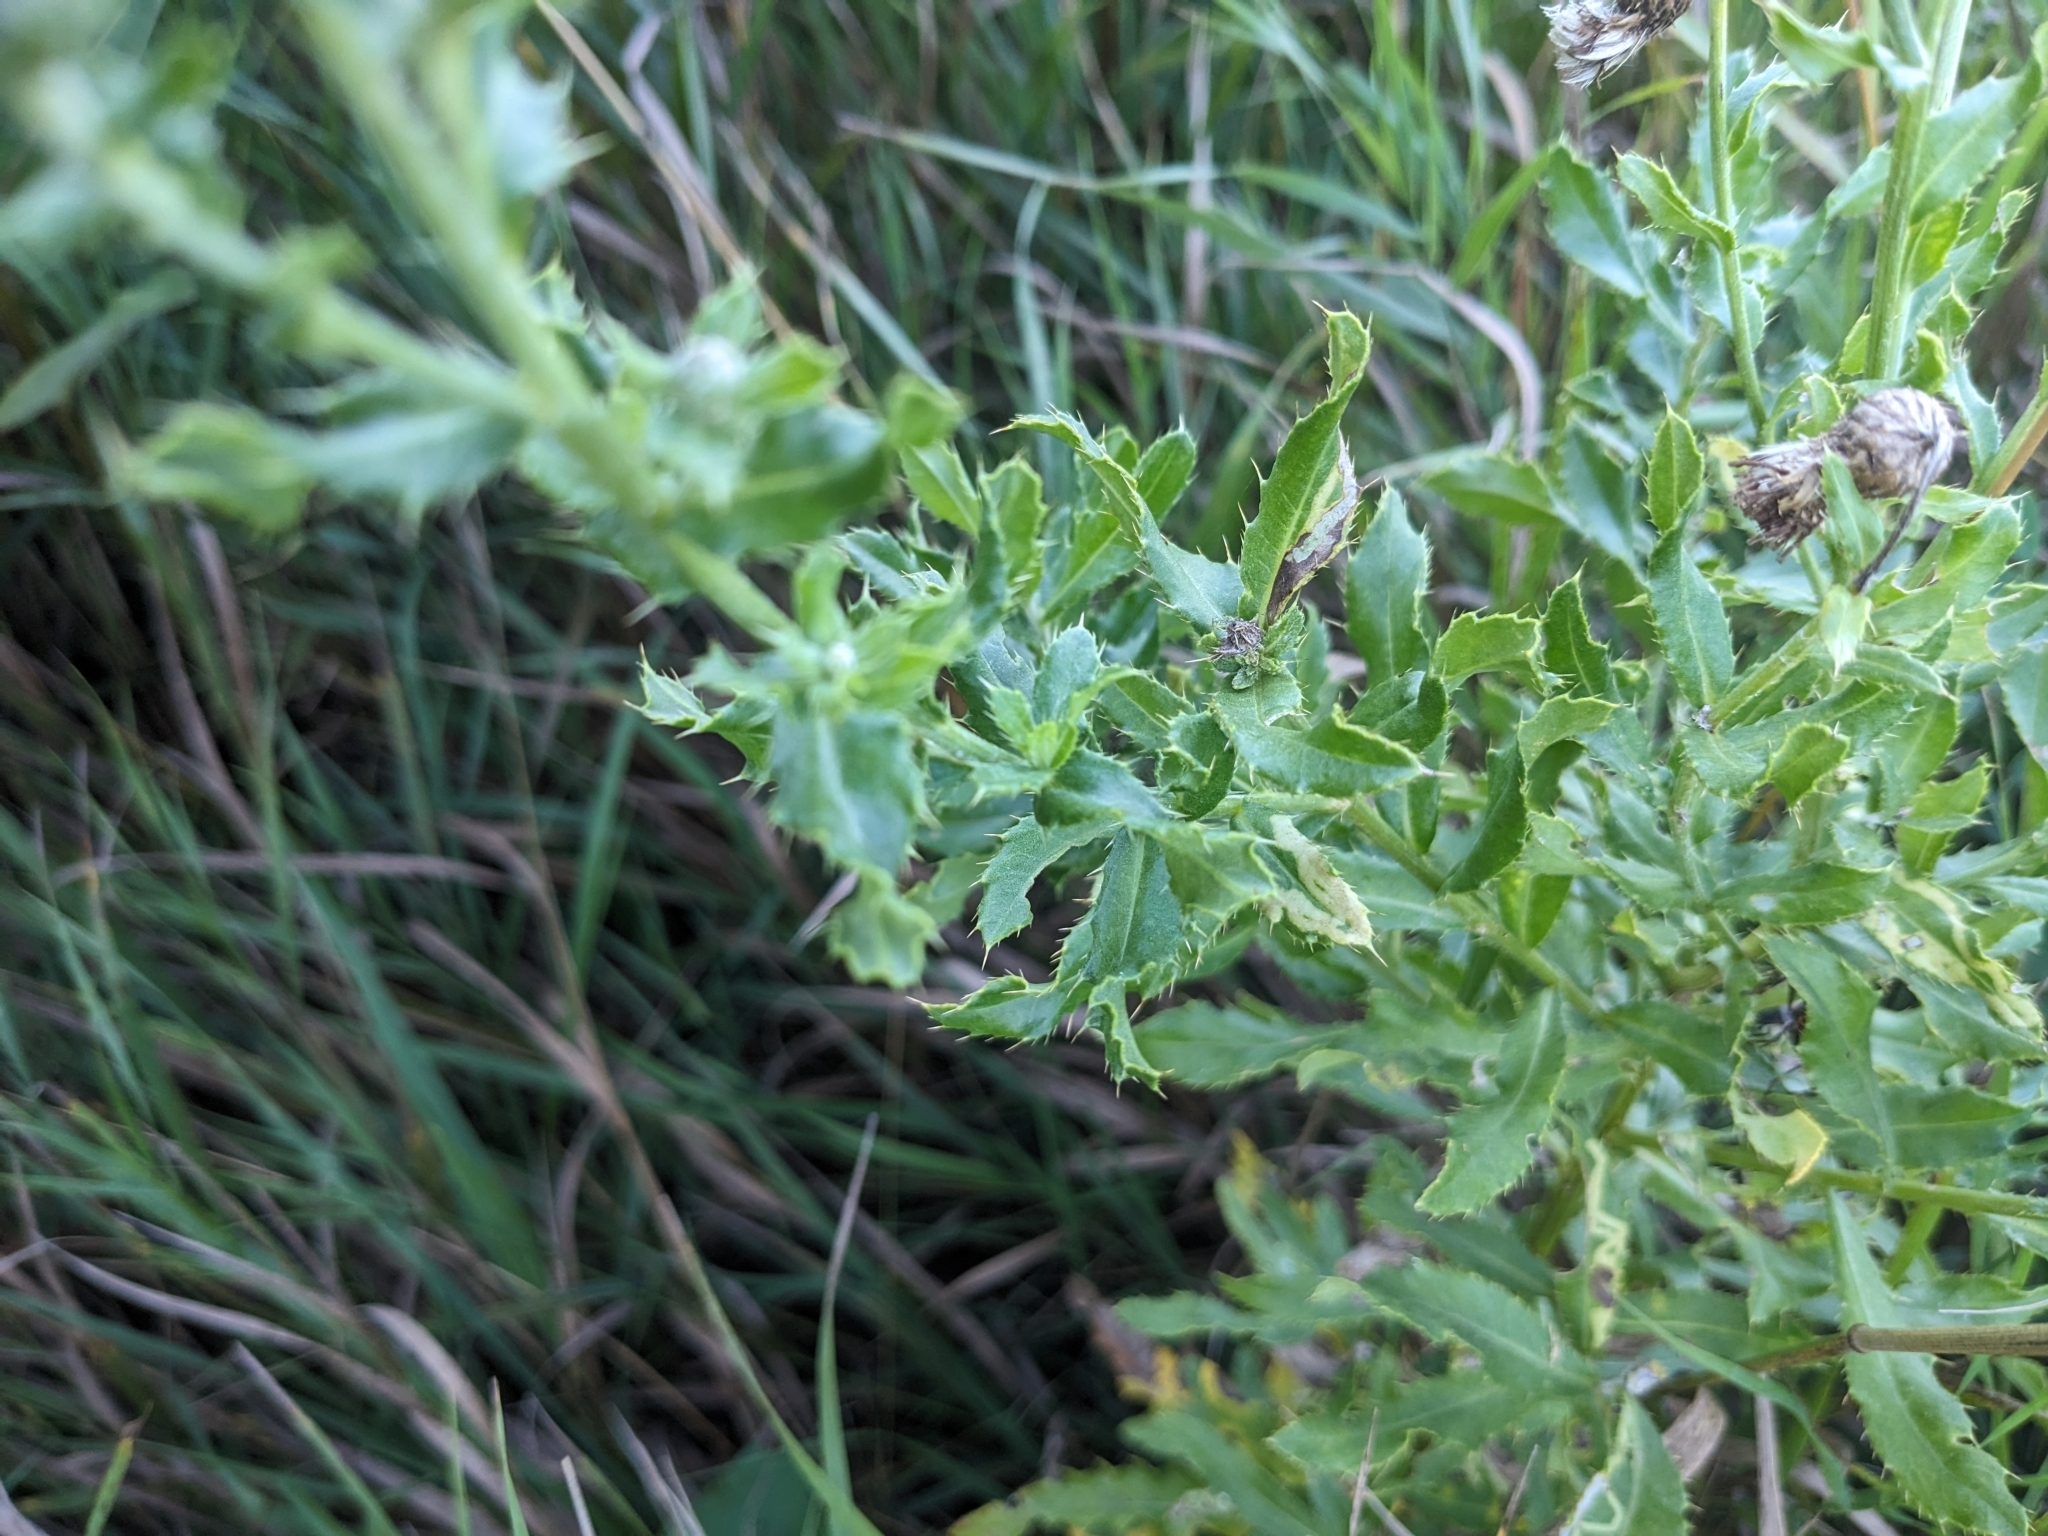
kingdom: Plantae
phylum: Tracheophyta
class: Magnoliopsida
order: Asterales
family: Asteraceae
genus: Cirsium
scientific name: Cirsium arvense
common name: Creeping thistle
